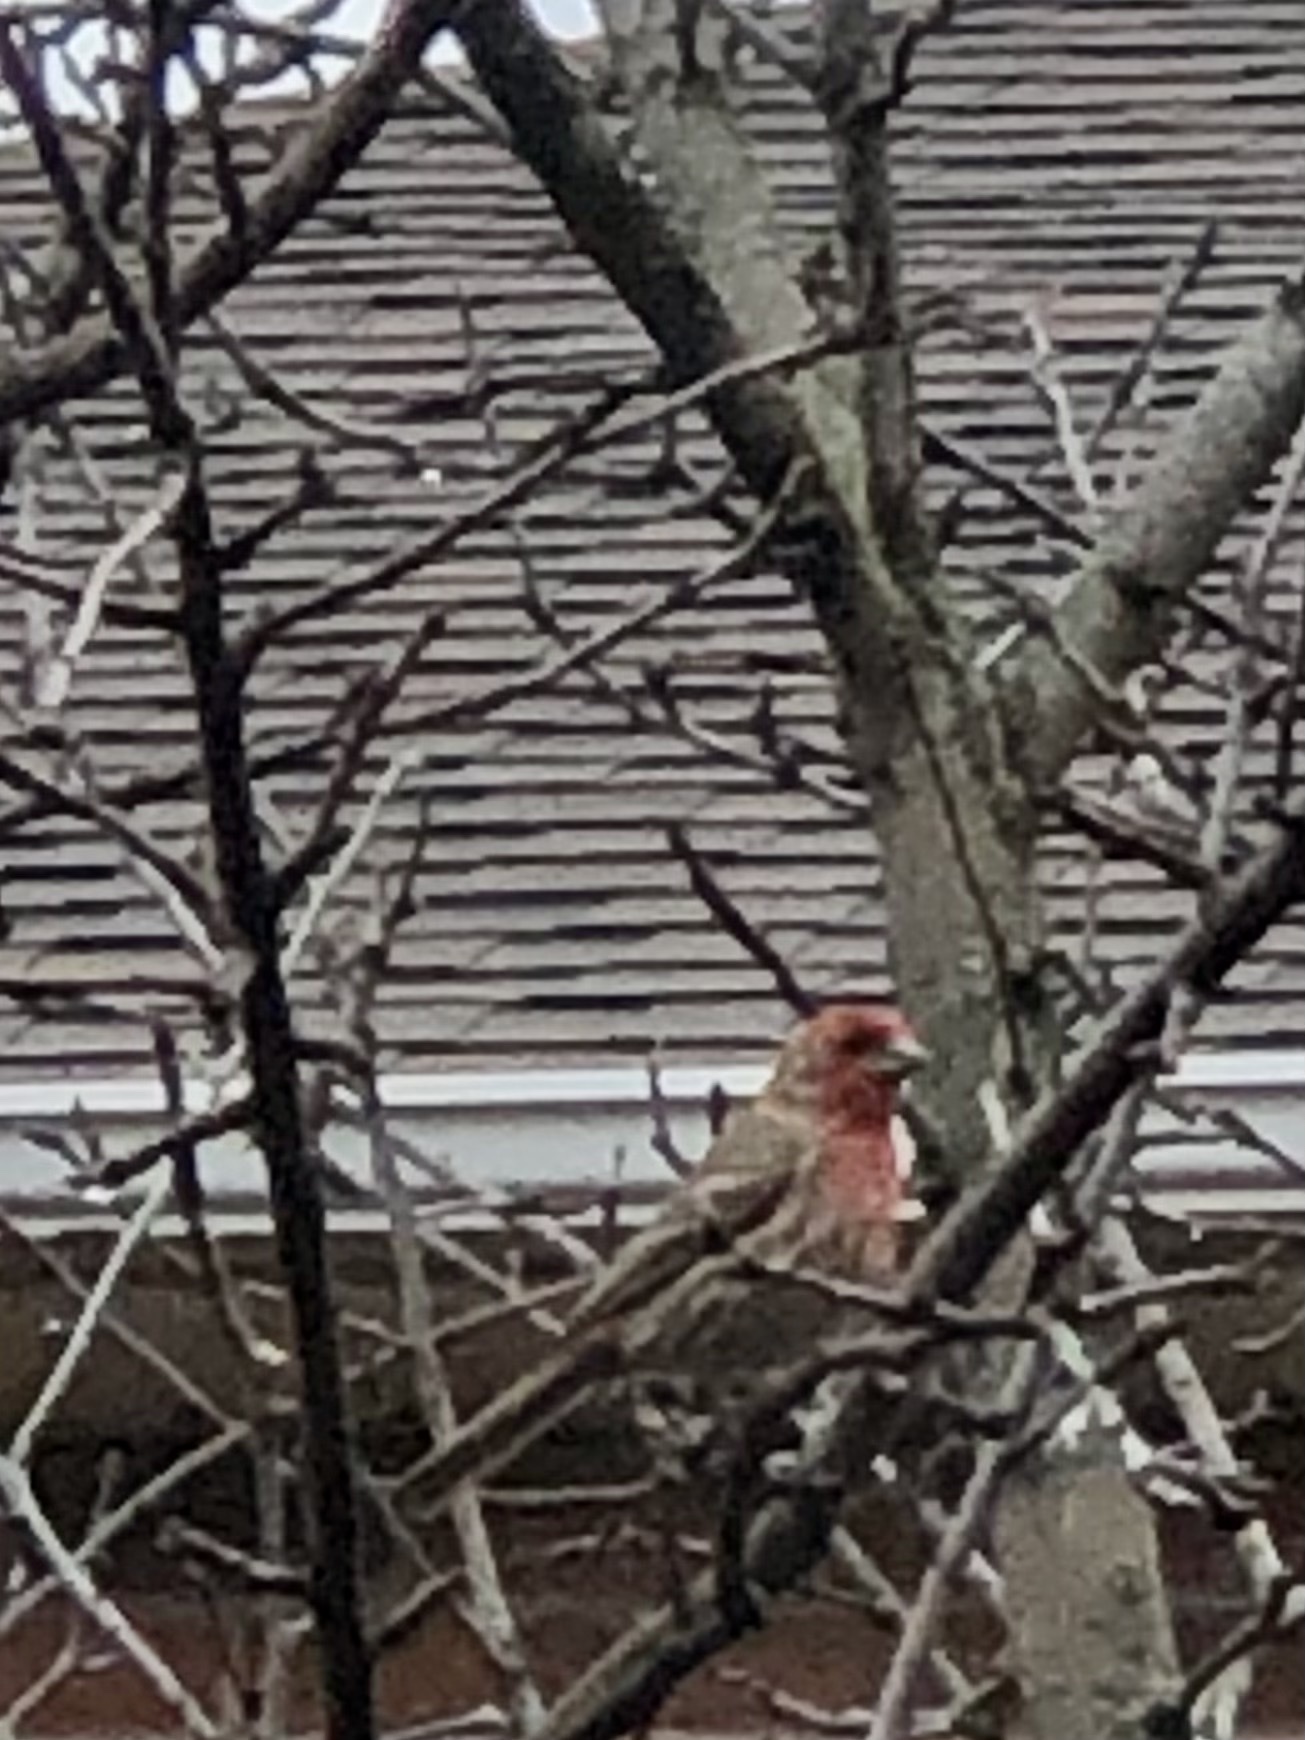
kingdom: Animalia
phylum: Chordata
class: Aves
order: Passeriformes
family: Fringillidae
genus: Haemorhous
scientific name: Haemorhous mexicanus
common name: House finch
